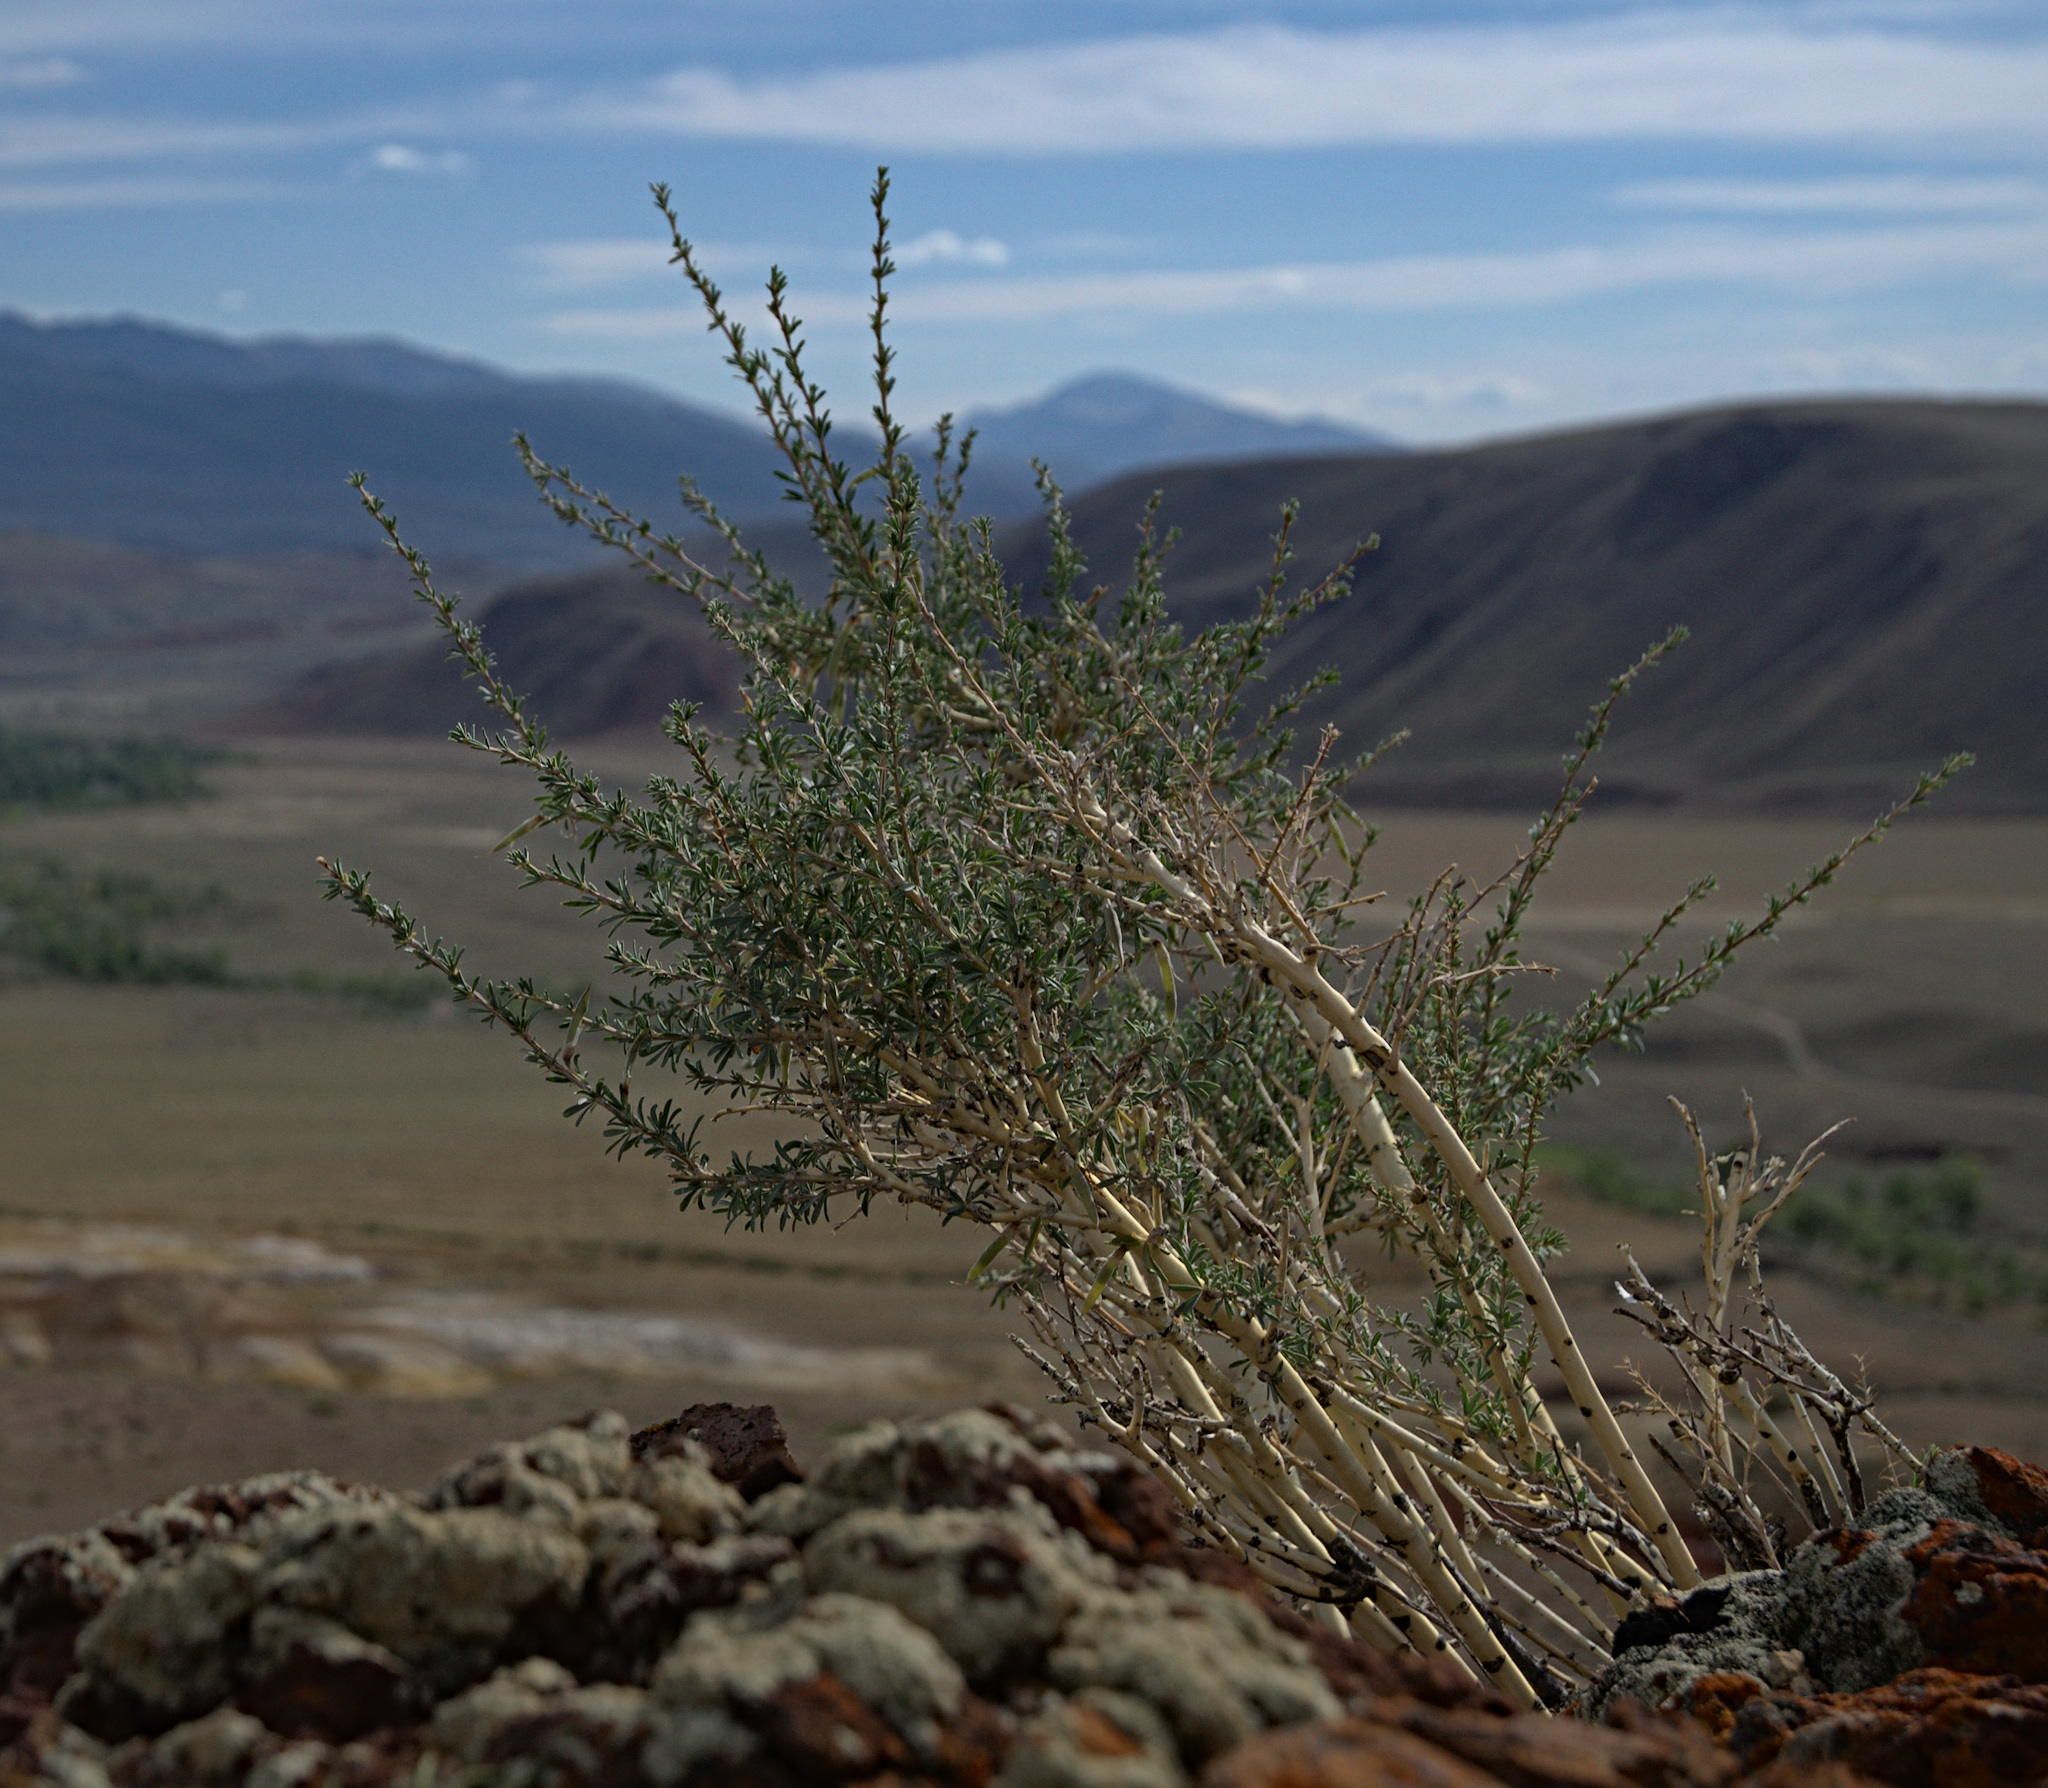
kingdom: Plantae
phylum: Tracheophyta
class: Magnoliopsida
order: Fabales
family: Fabaceae
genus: Caragana
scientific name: Caragana pygmaea
